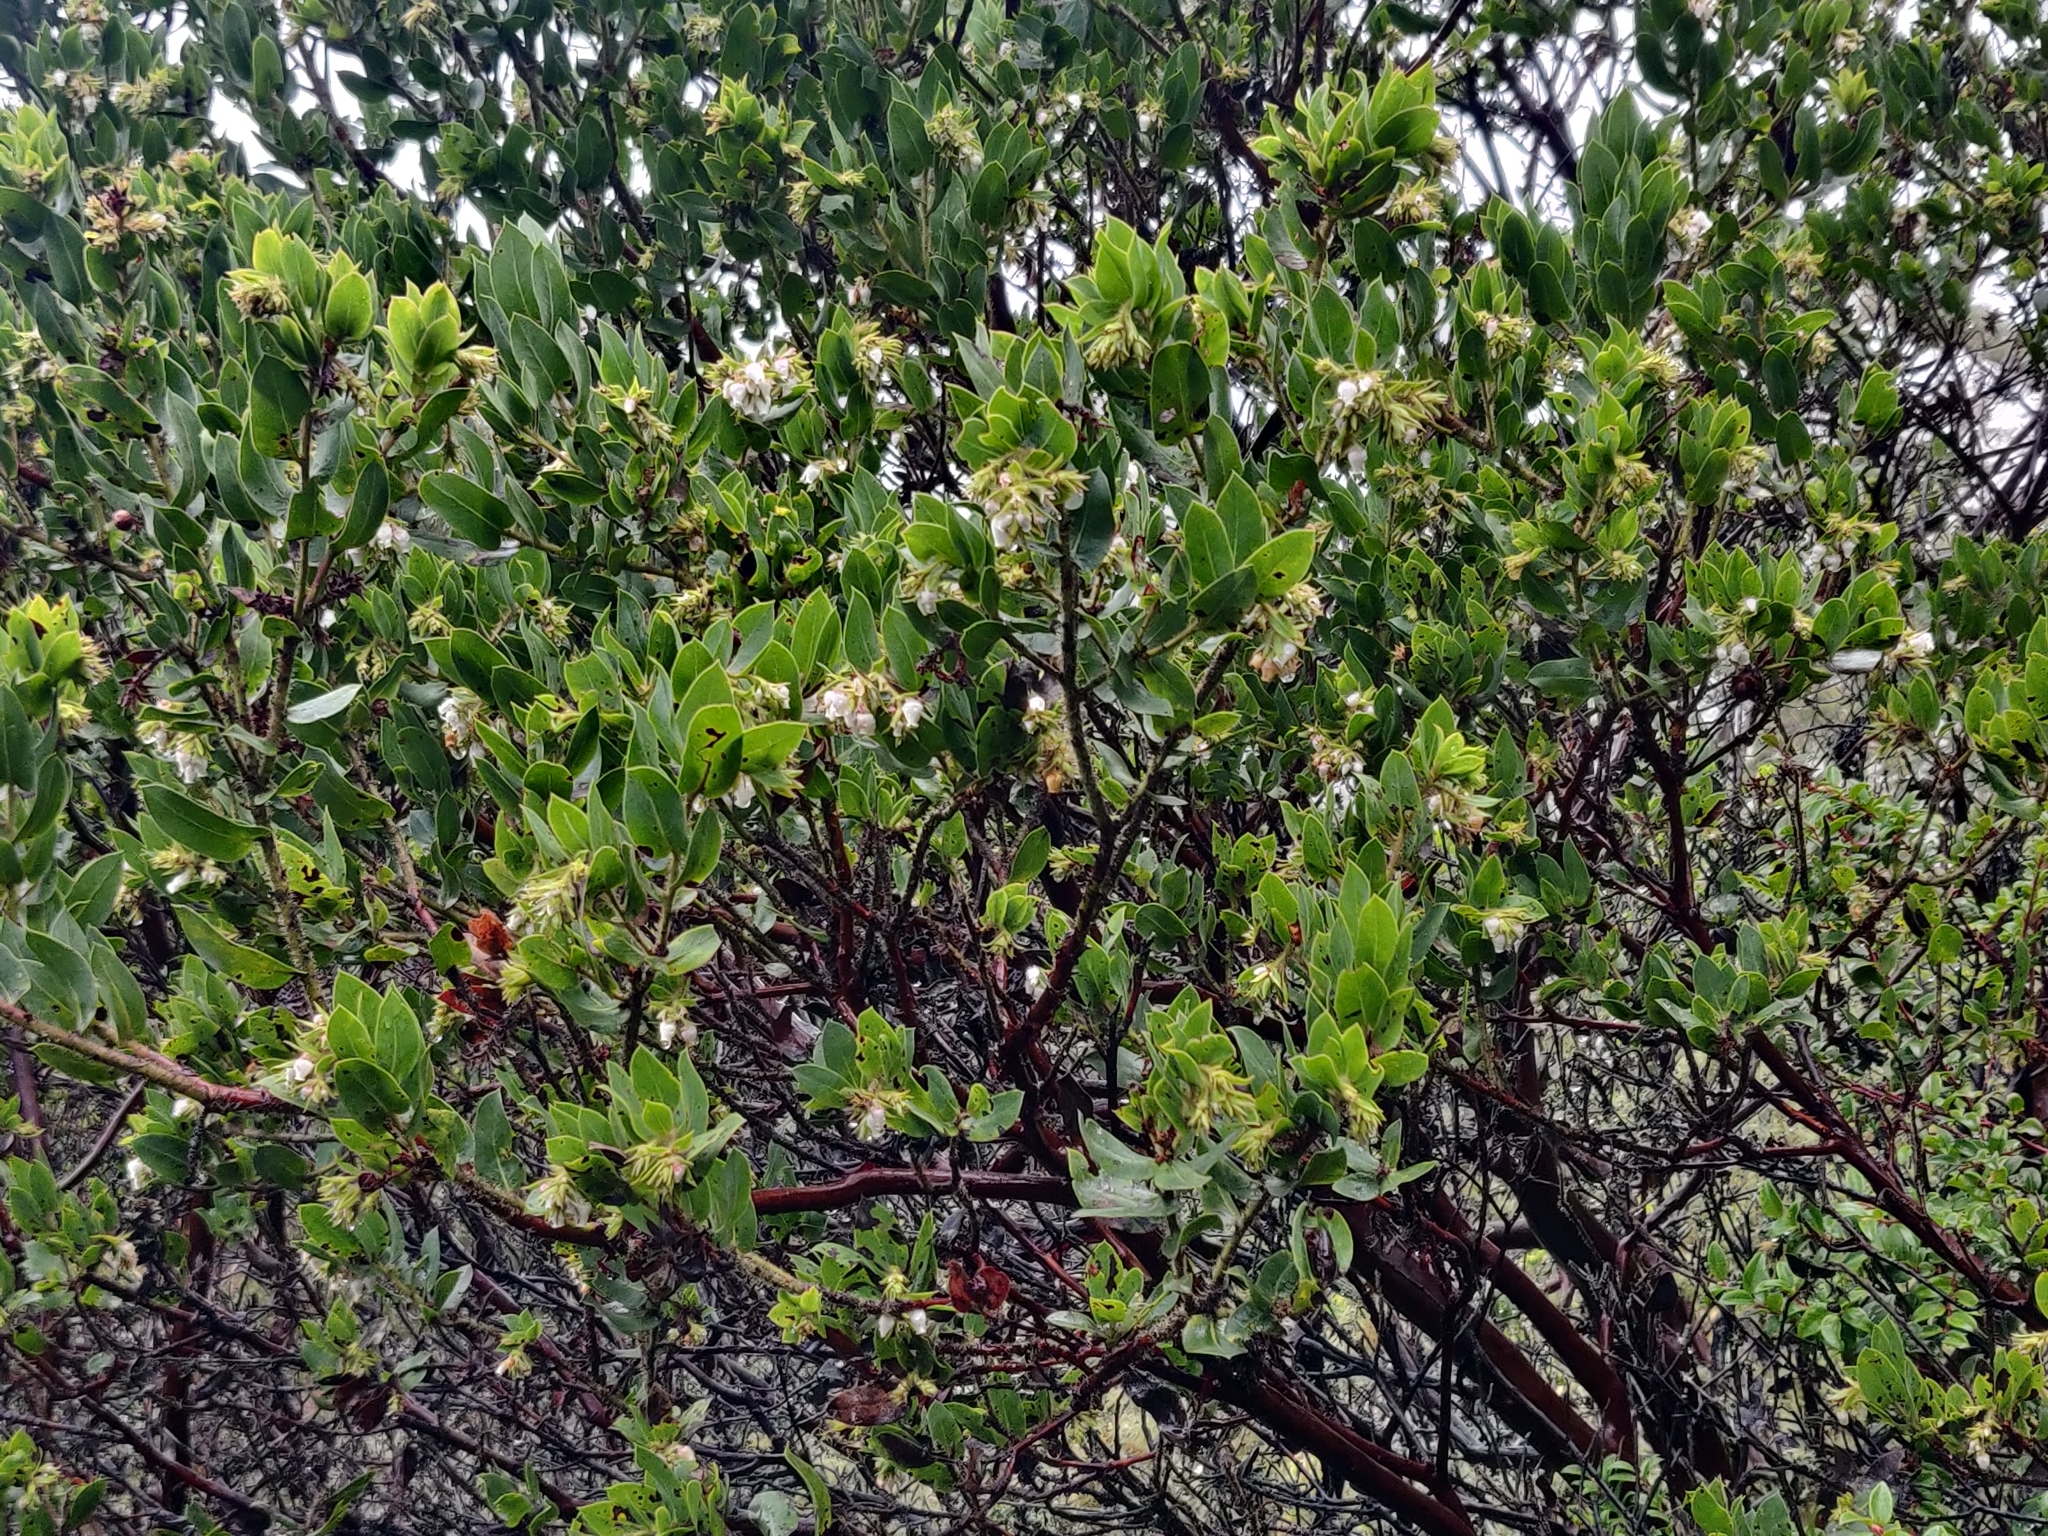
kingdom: Plantae
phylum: Tracheophyta
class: Magnoliopsida
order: Ericales
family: Ericaceae
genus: Arctostaphylos
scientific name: Arctostaphylos montaraensis
